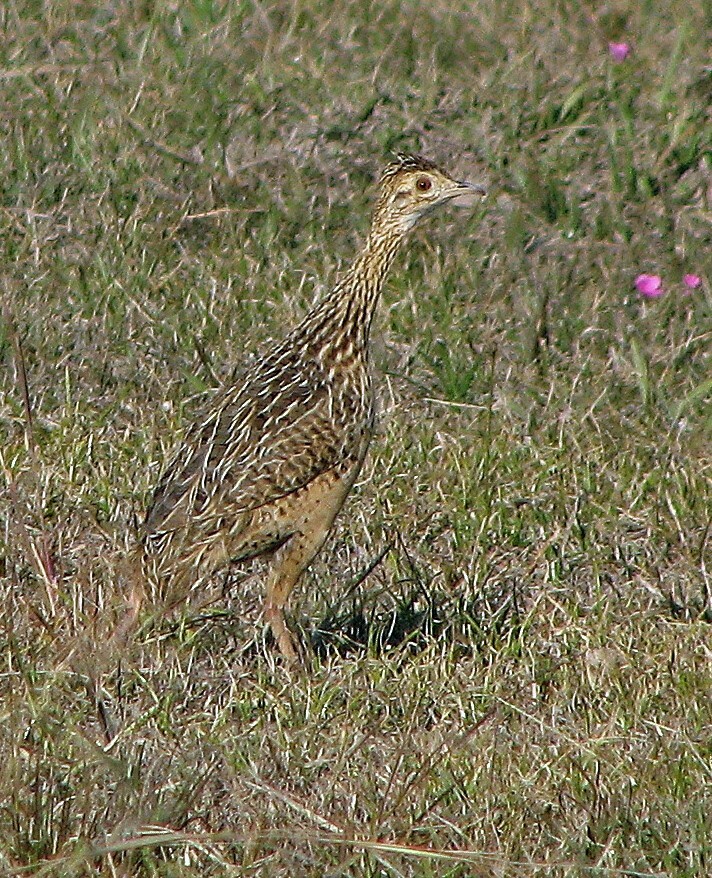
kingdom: Animalia
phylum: Chordata
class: Aves
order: Tinamiformes
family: Tinamidae
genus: Nothura
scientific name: Nothura maculosa
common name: Spotted nothura
